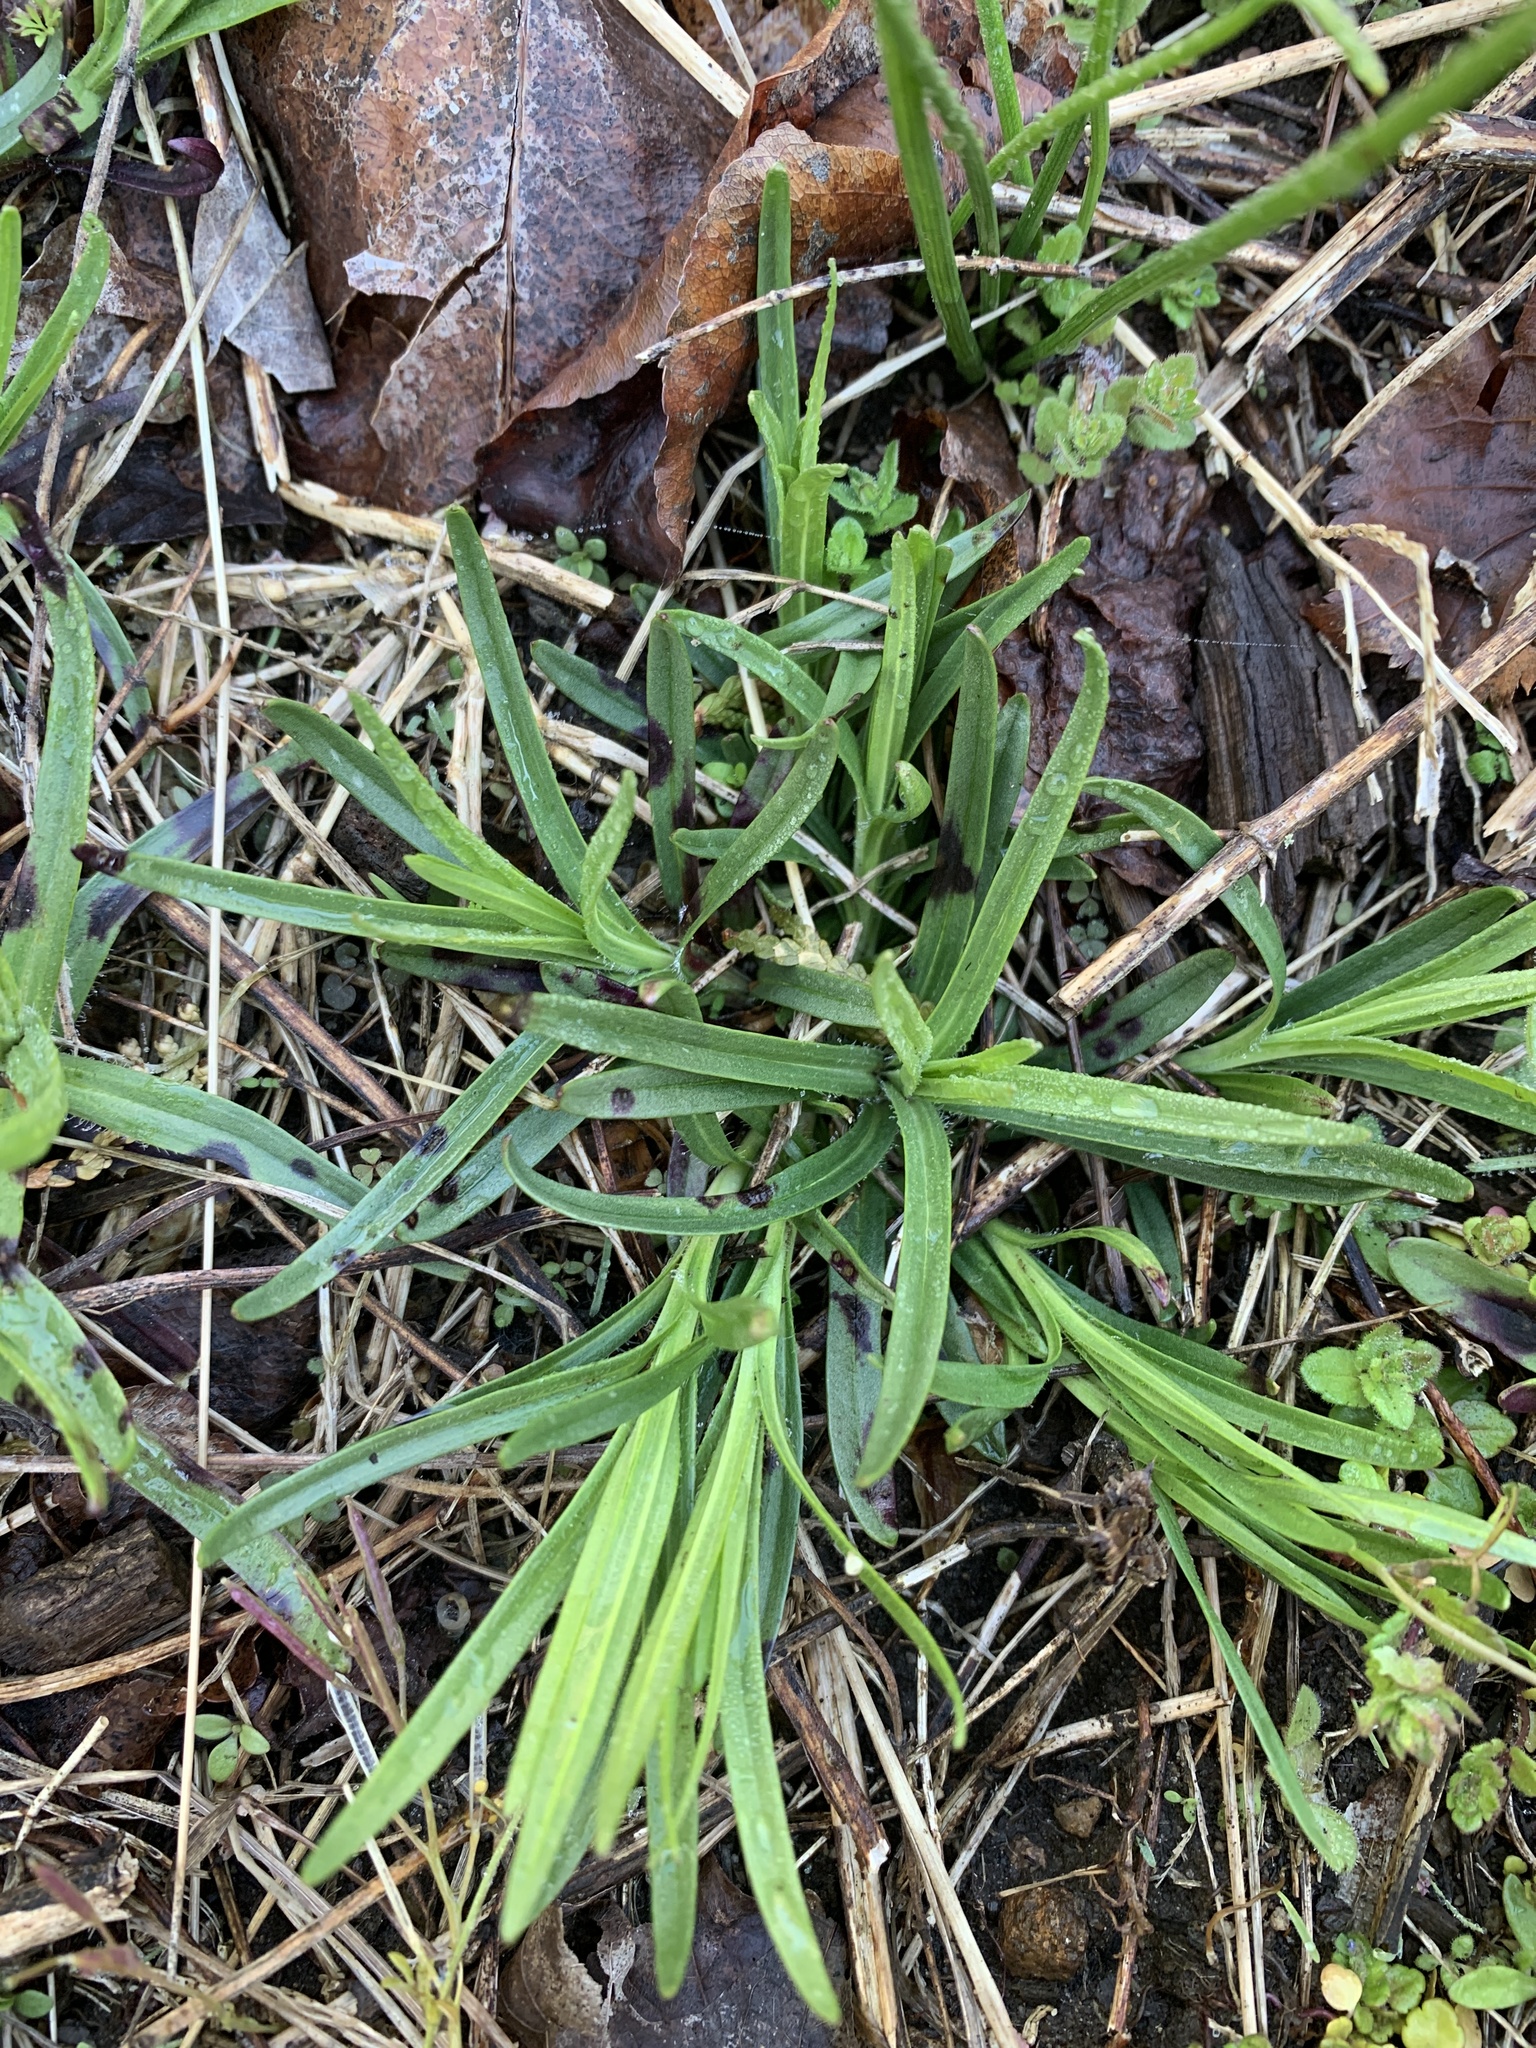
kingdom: Plantae
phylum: Tracheophyta
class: Magnoliopsida
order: Caryophyllales
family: Caryophyllaceae
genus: Dianthus
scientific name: Dianthus armeria
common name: Deptford pink
